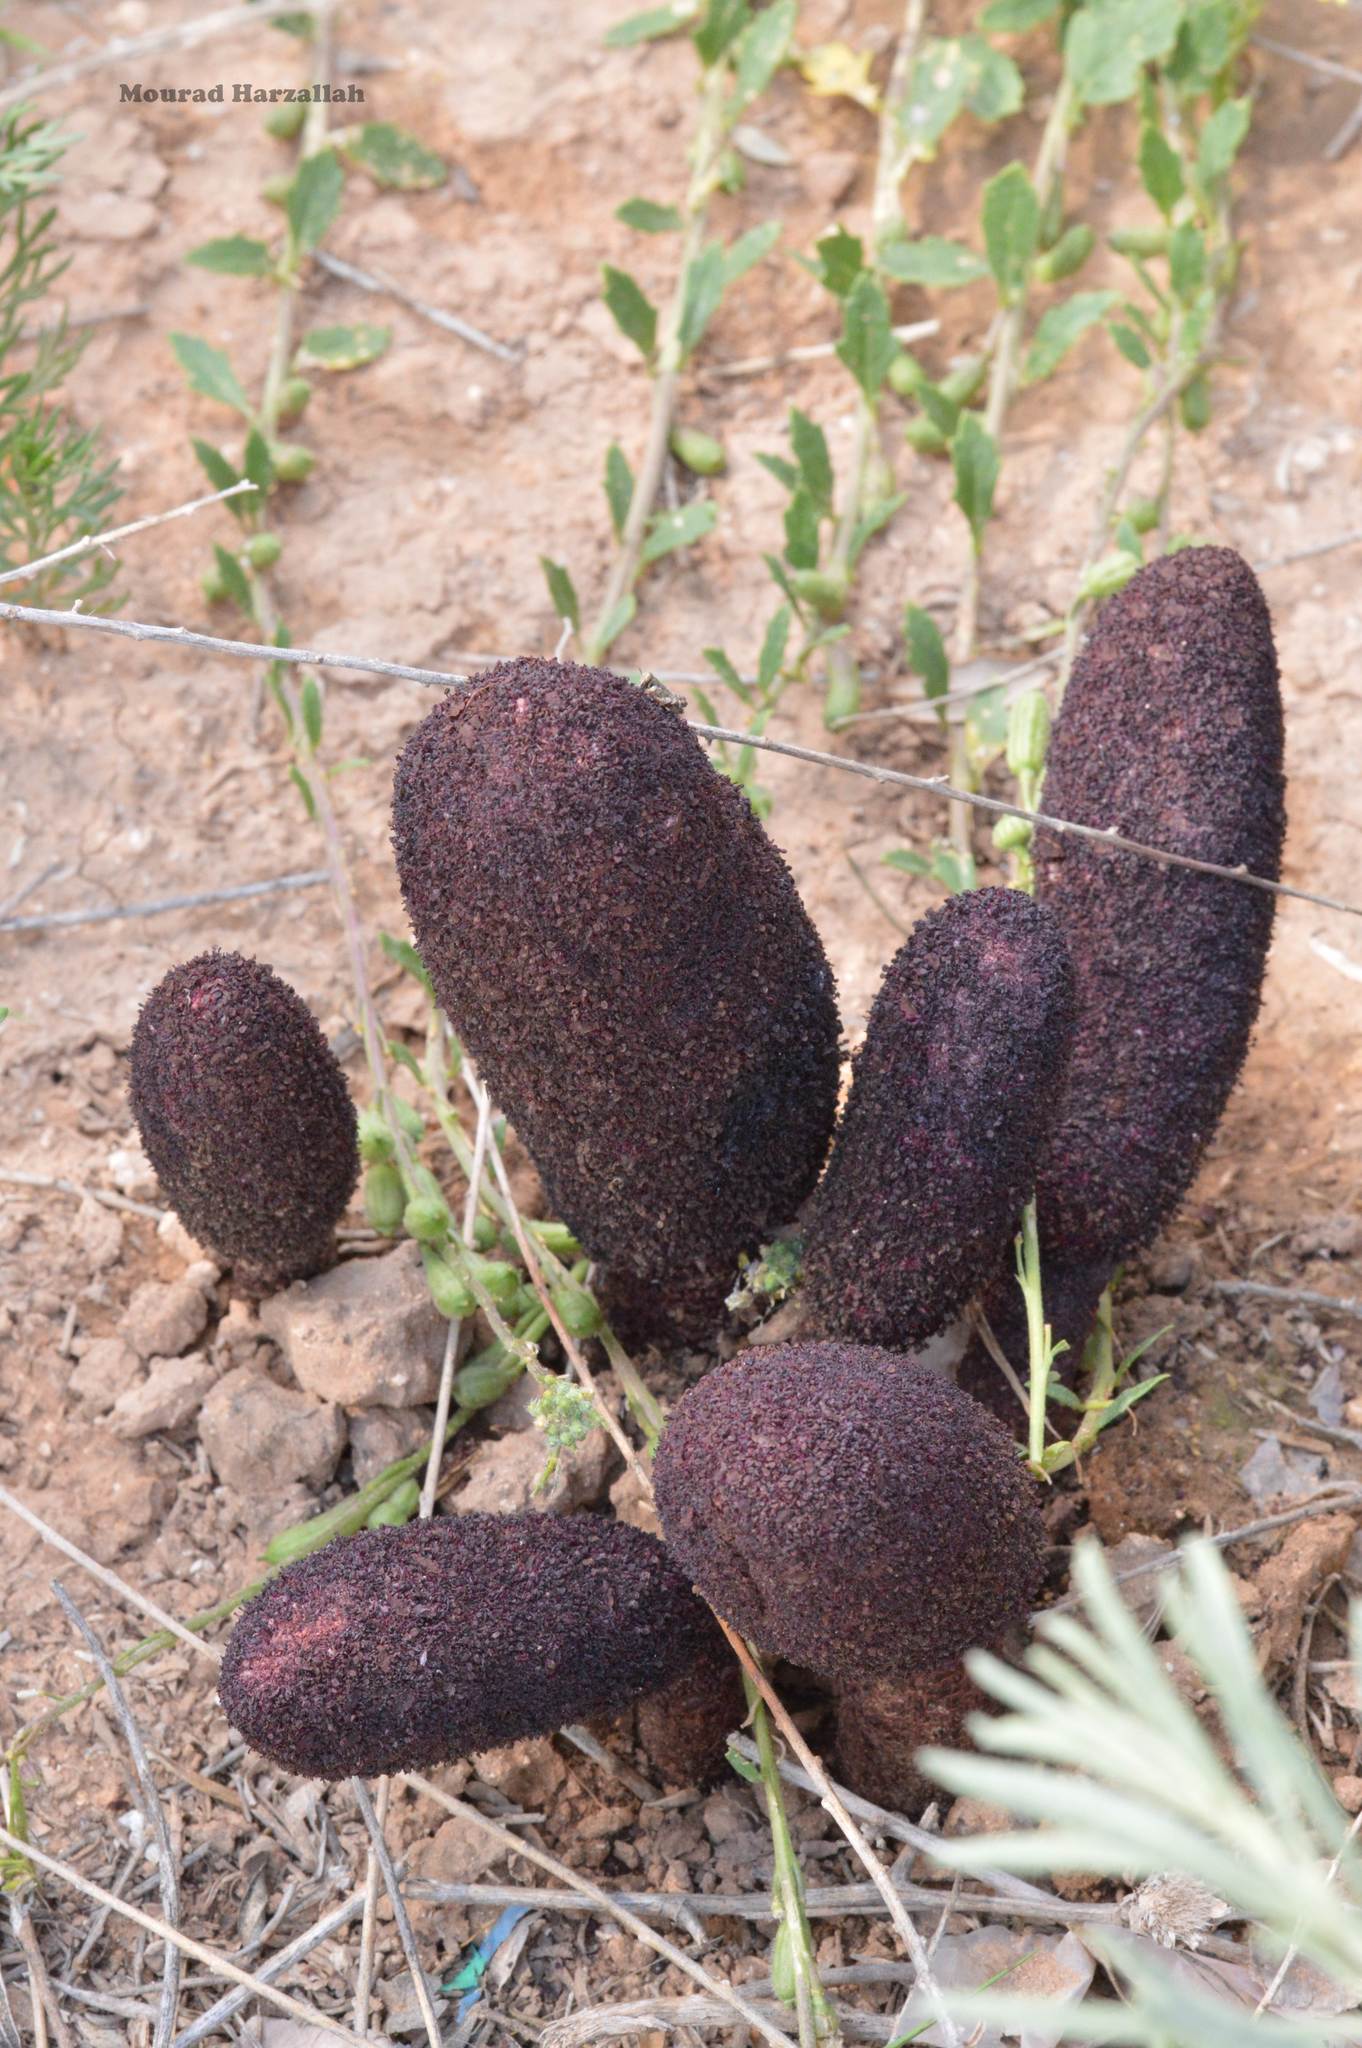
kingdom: Plantae
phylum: Tracheophyta
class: Magnoliopsida
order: Saxifragales
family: Cynomoriaceae
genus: Cynomorium
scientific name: Cynomorium coccineum
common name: Maltese-mushroom
